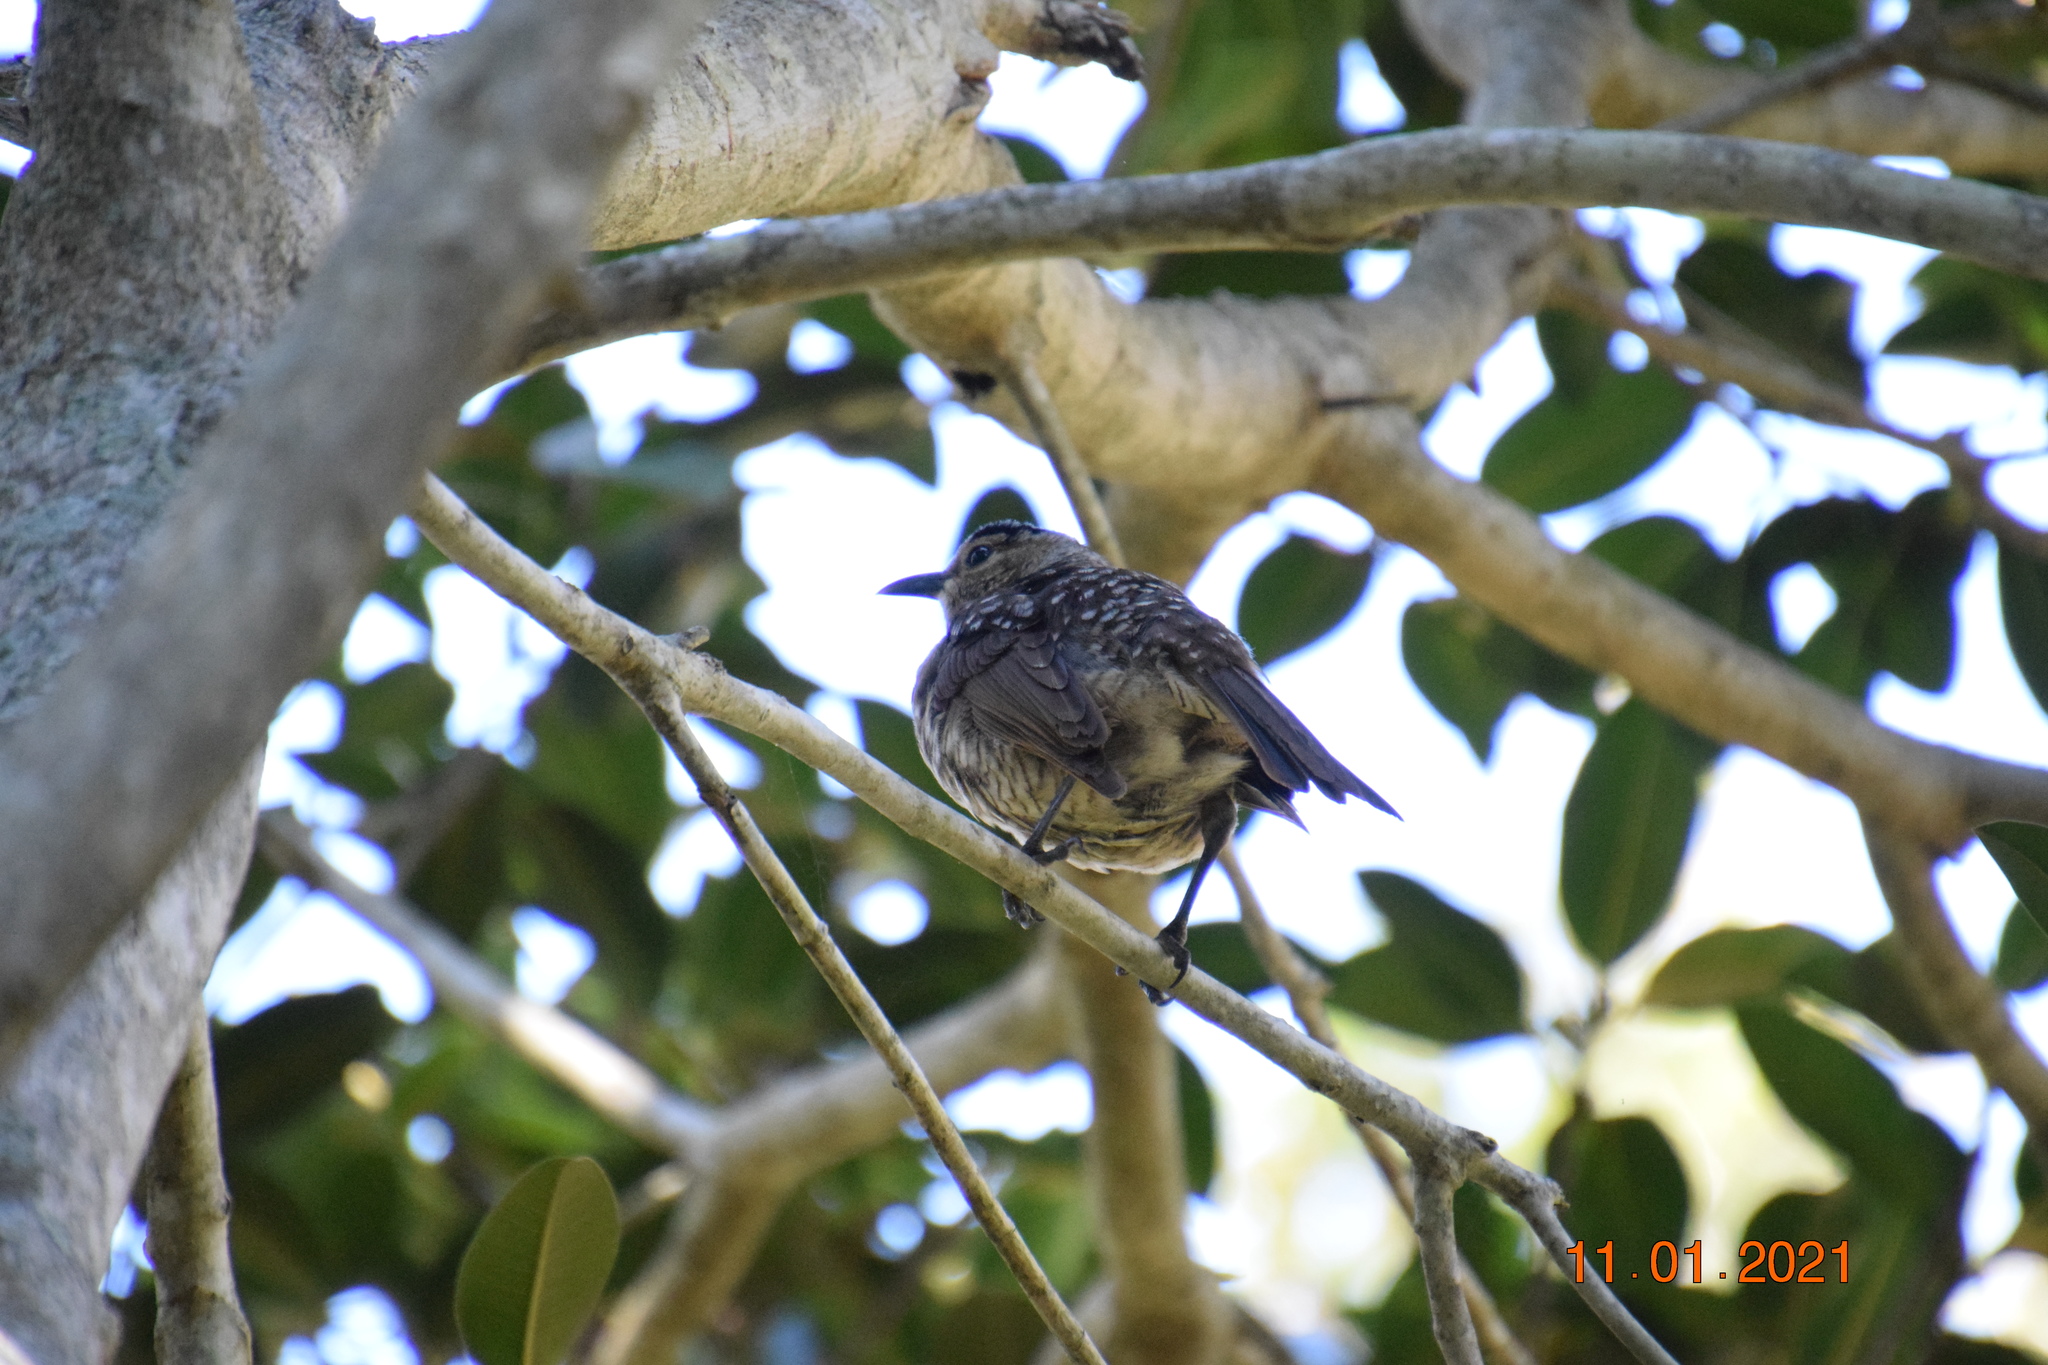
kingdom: Animalia
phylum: Chordata
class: Aves
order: Passeriformes
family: Ptilonorhynchidae
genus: Sericulus
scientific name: Sericulus chrysocephalus
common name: Regent bowerbird
